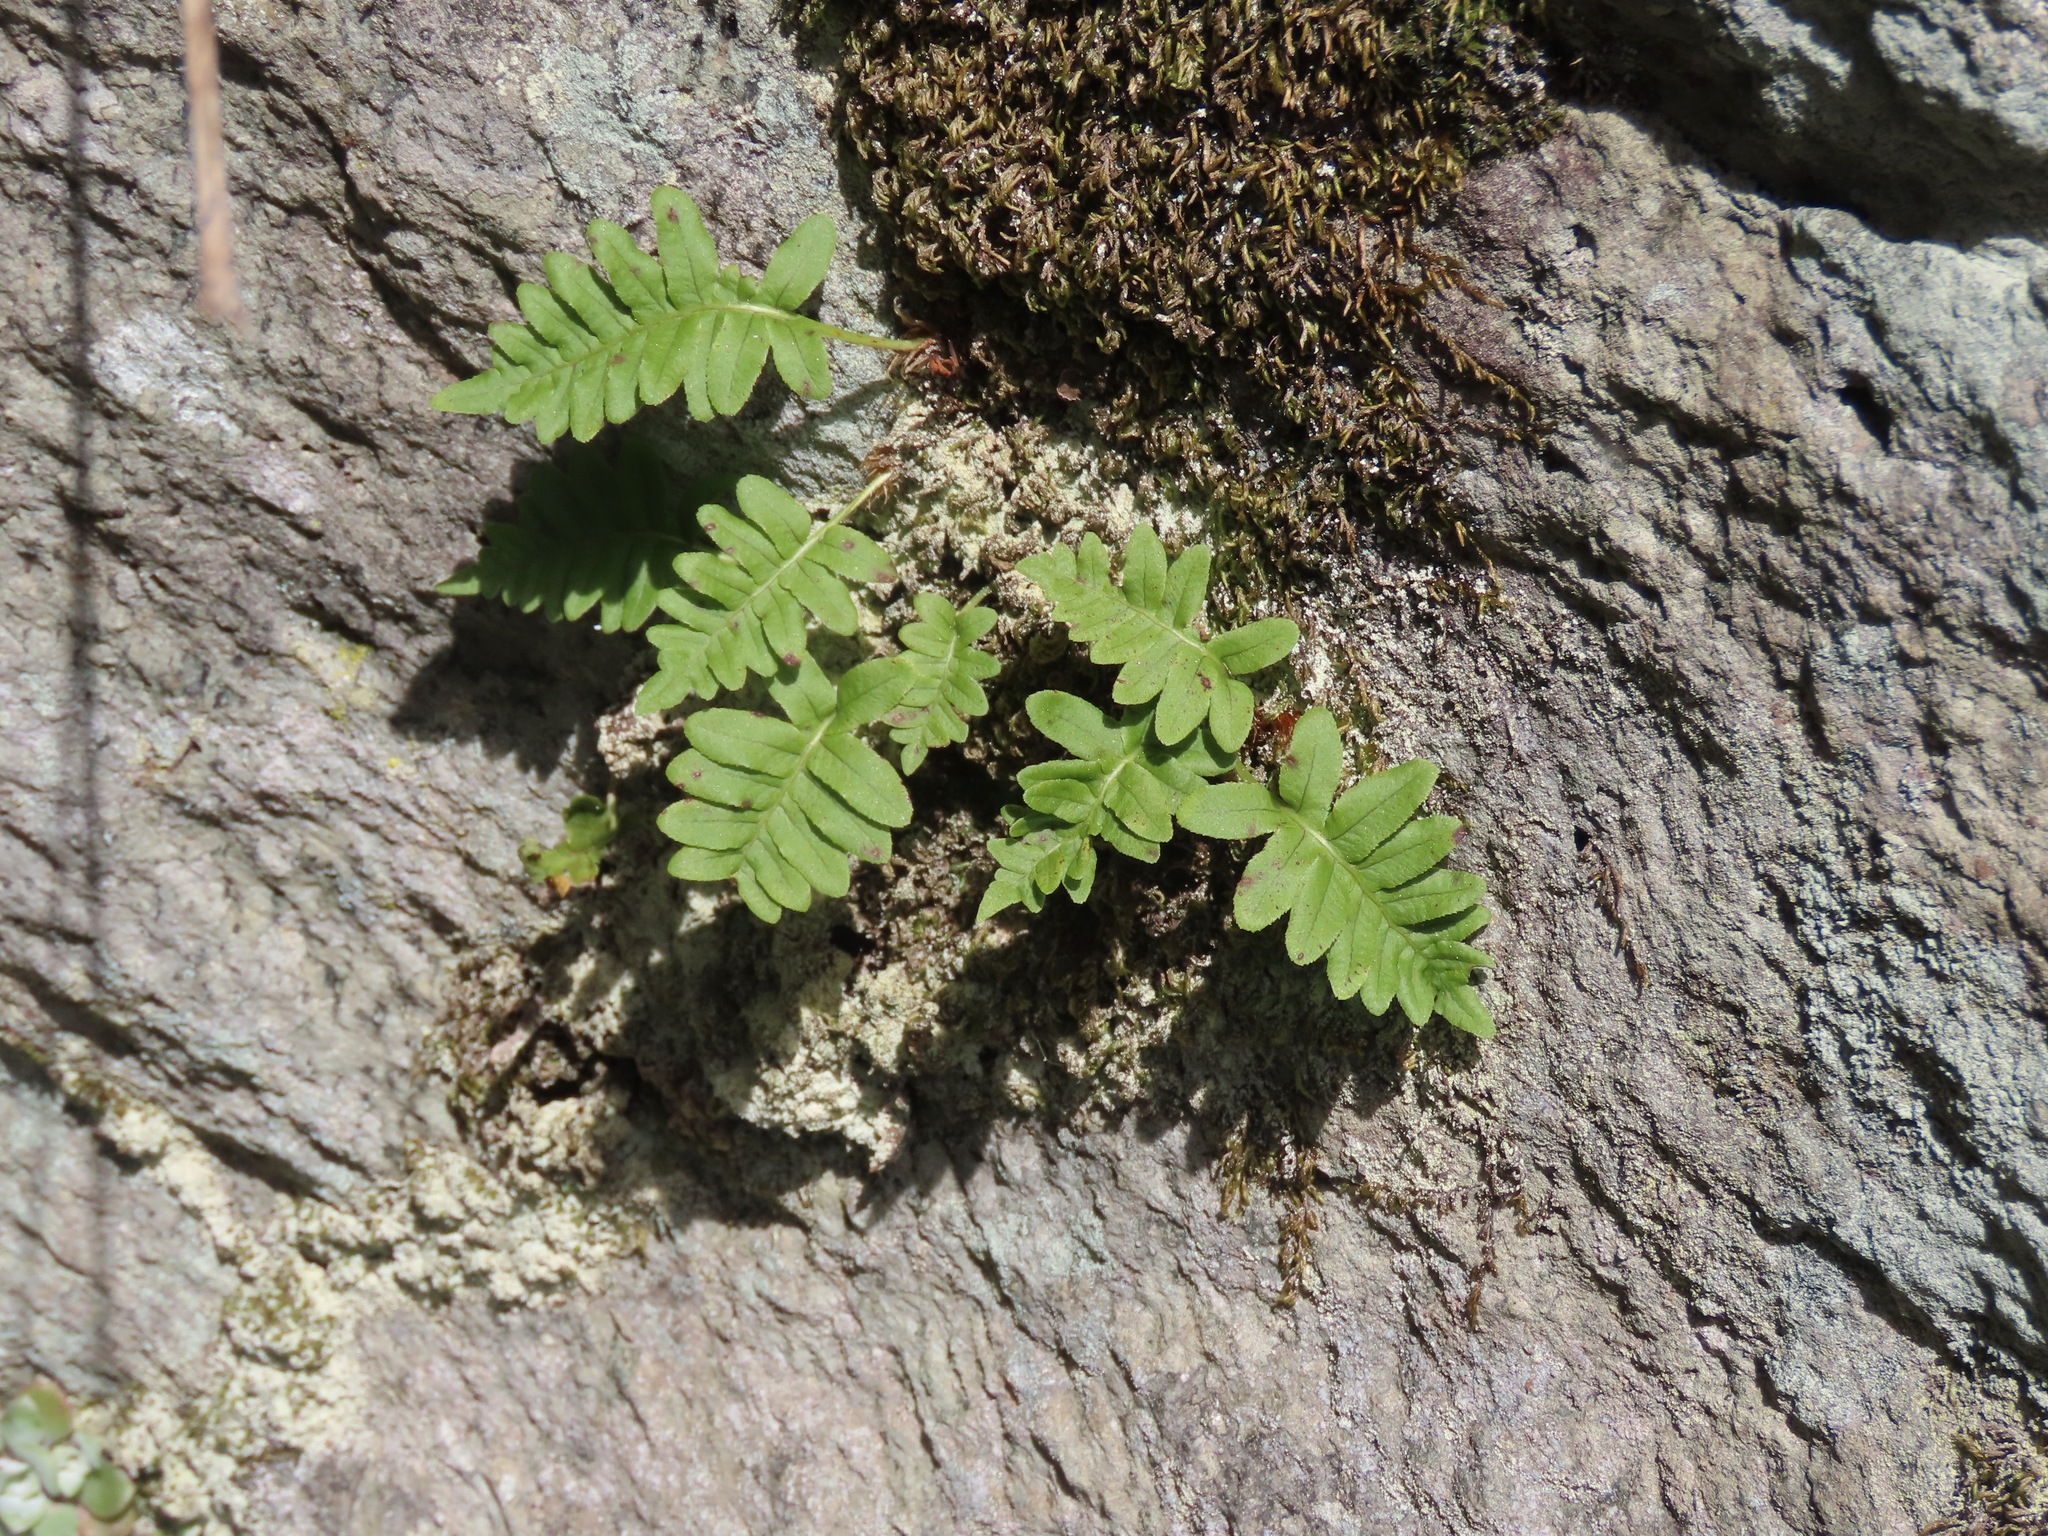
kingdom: Plantae
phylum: Tracheophyta
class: Polypodiopsida
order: Polypodiales
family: Polypodiaceae
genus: Polypodium
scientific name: Polypodium glycyrrhiza
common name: Licorice fern
